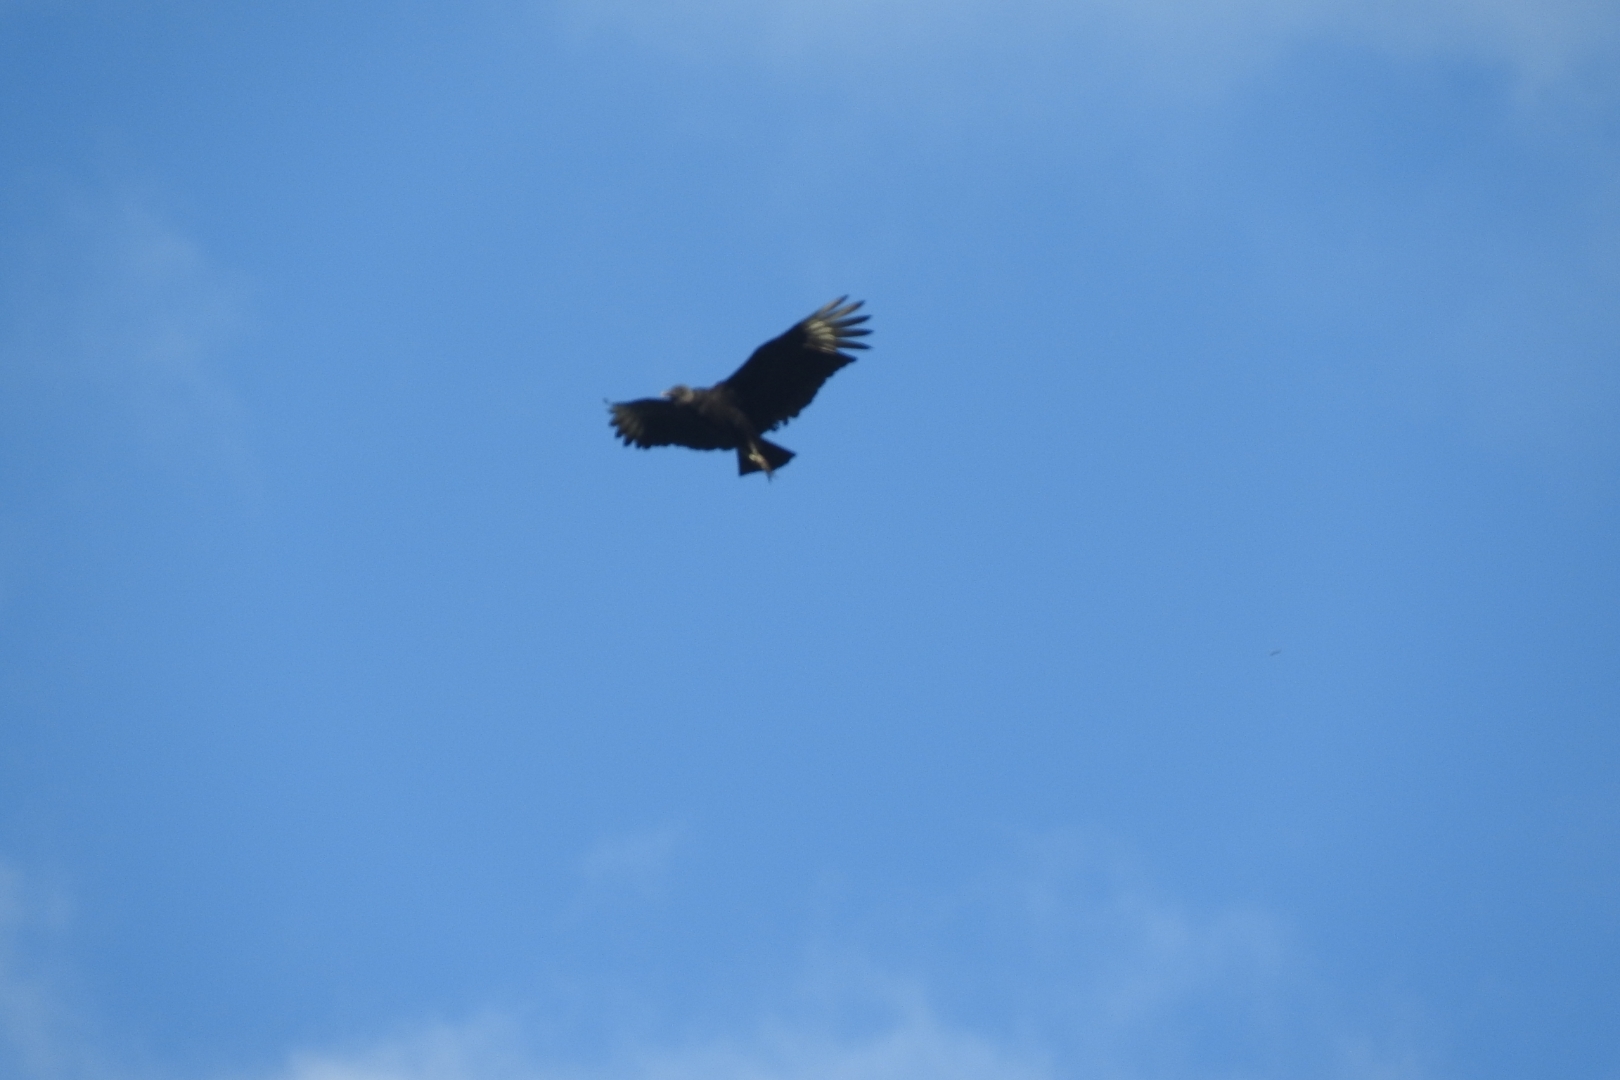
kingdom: Animalia
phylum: Chordata
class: Aves
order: Accipitriformes
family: Cathartidae
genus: Coragyps
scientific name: Coragyps atratus
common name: Black vulture
